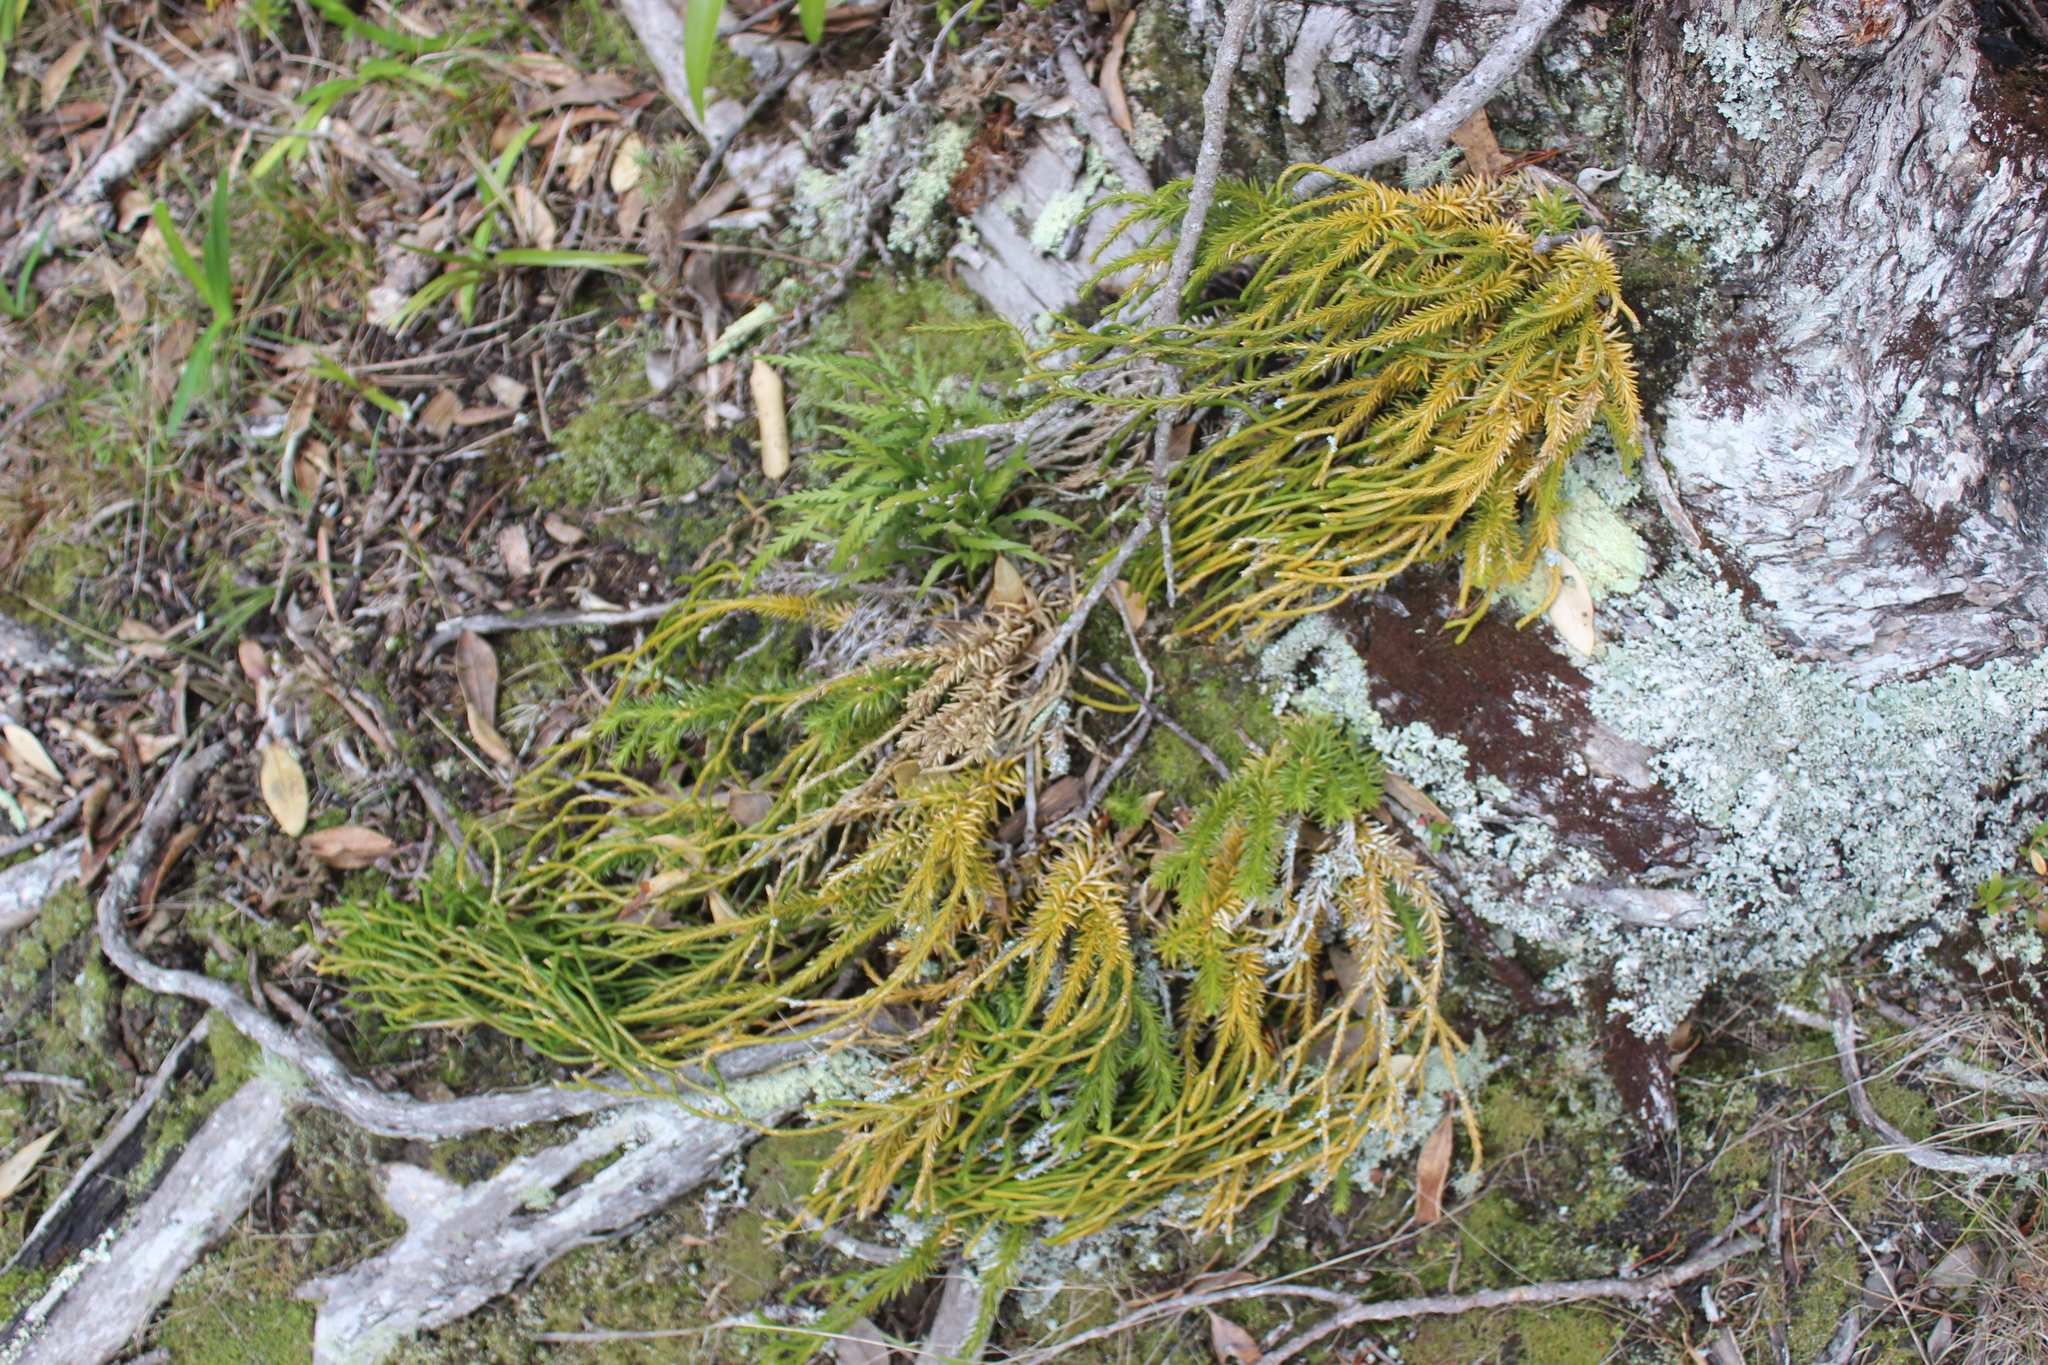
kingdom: Plantae
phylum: Tracheophyta
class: Lycopodiopsida
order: Lycopodiales
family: Lycopodiaceae
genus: Phlegmariurus
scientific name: Phlegmariurus billardierei
